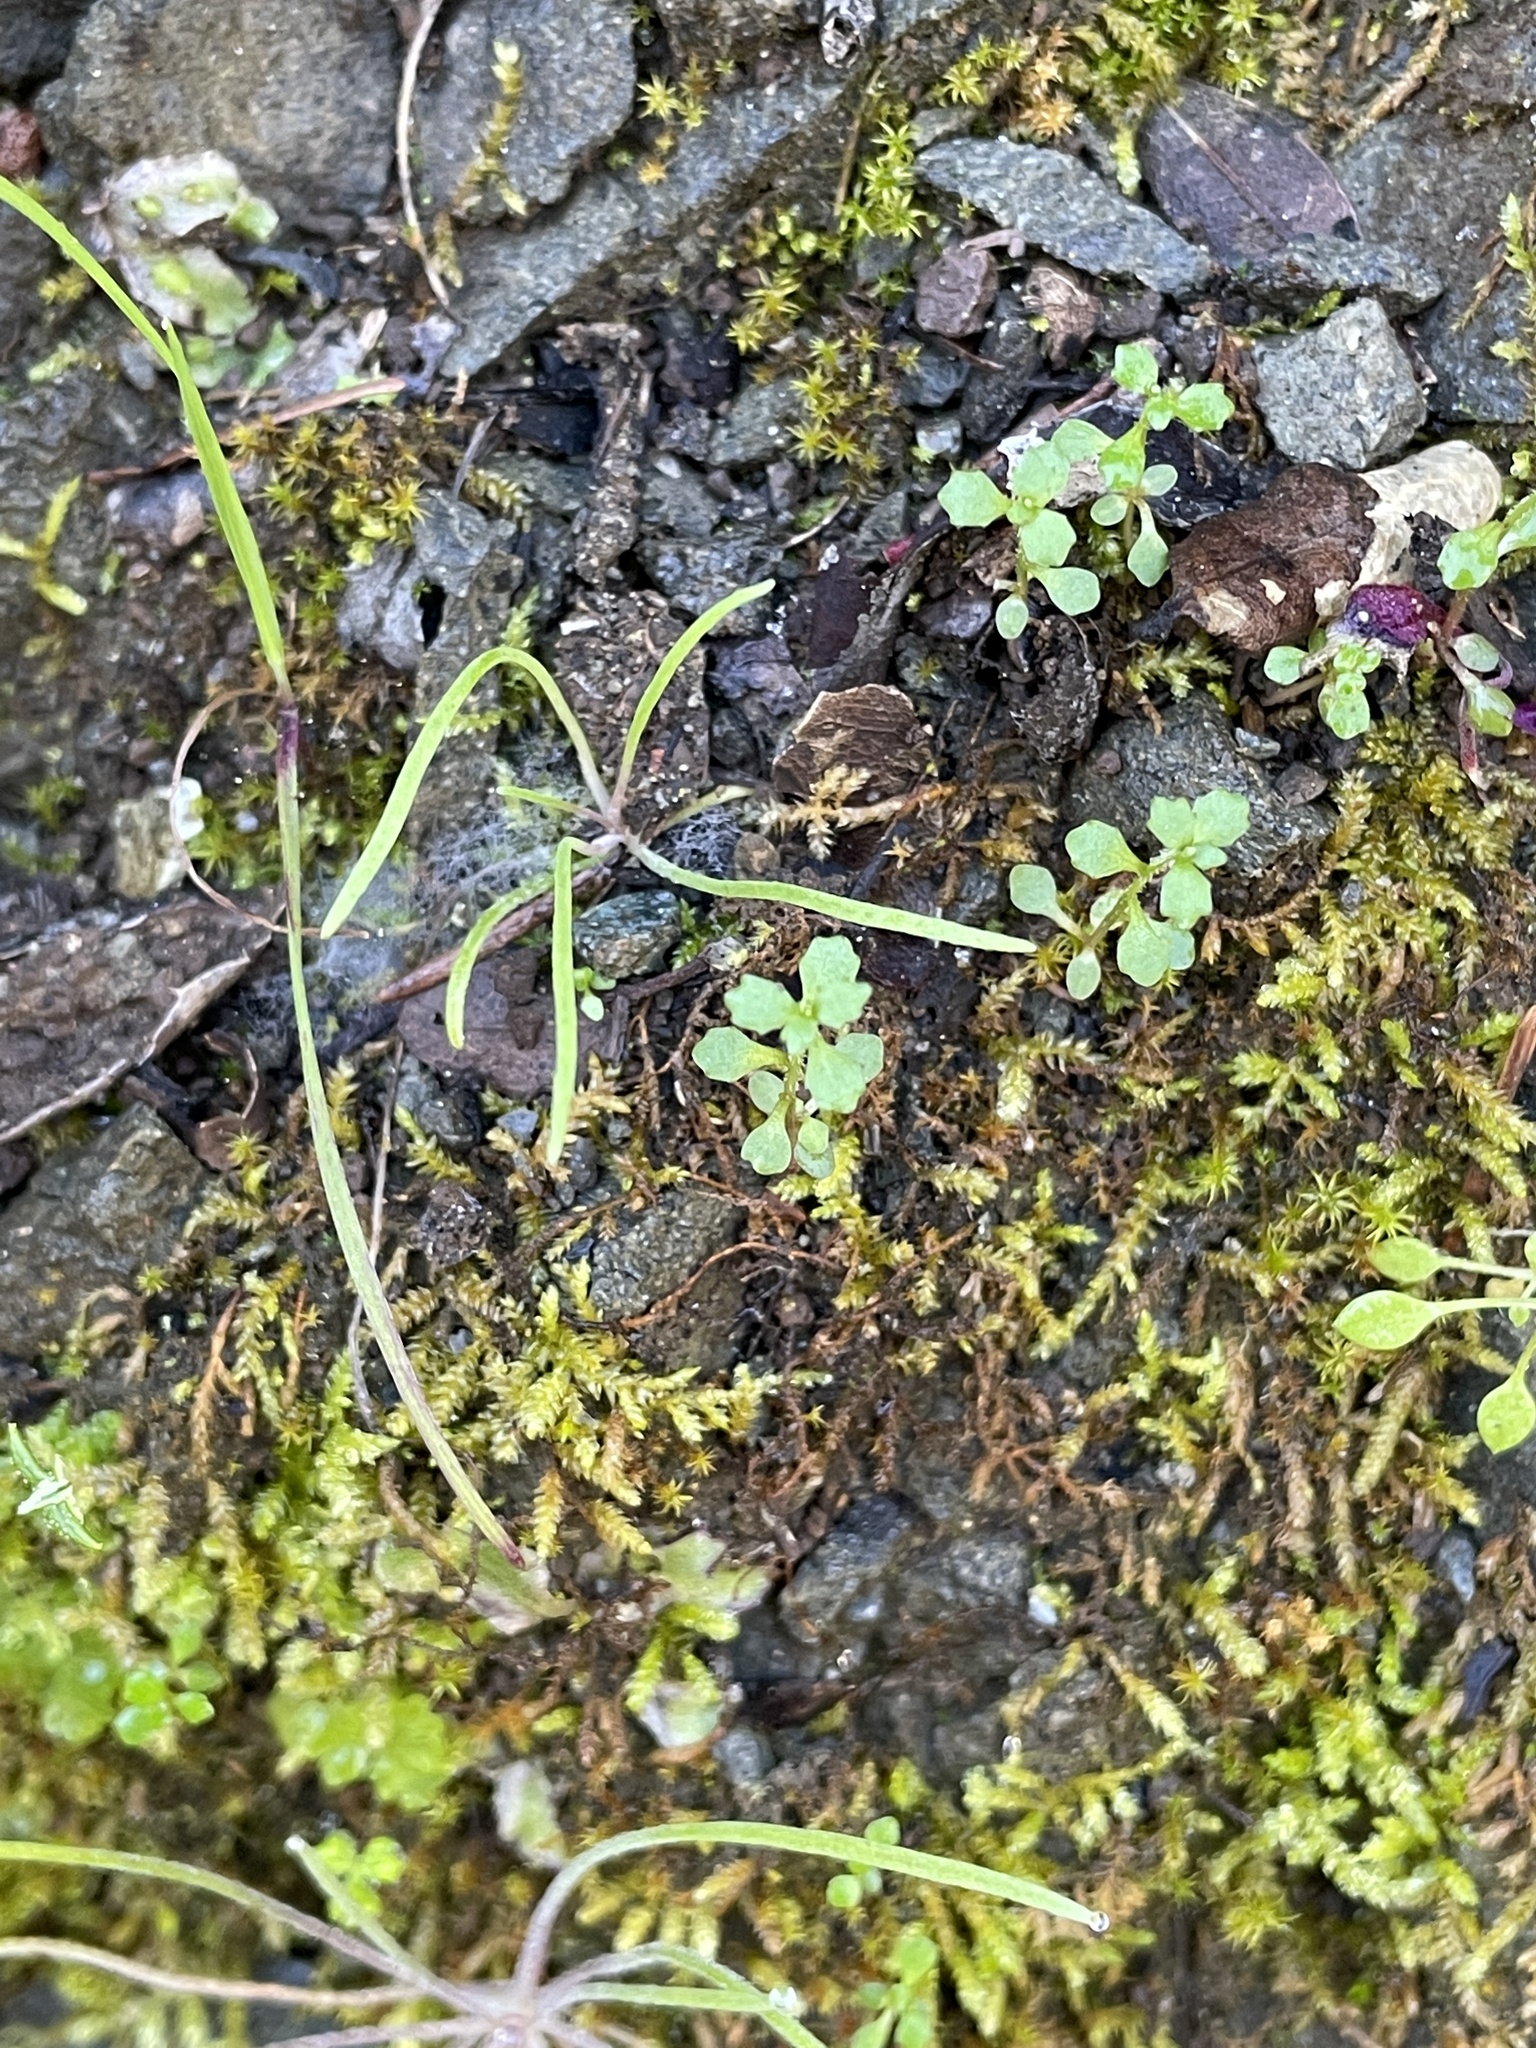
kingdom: Plantae
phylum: Tracheophyta
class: Magnoliopsida
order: Asterales
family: Campanulaceae
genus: Ravenella
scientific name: Ravenella griffinii
